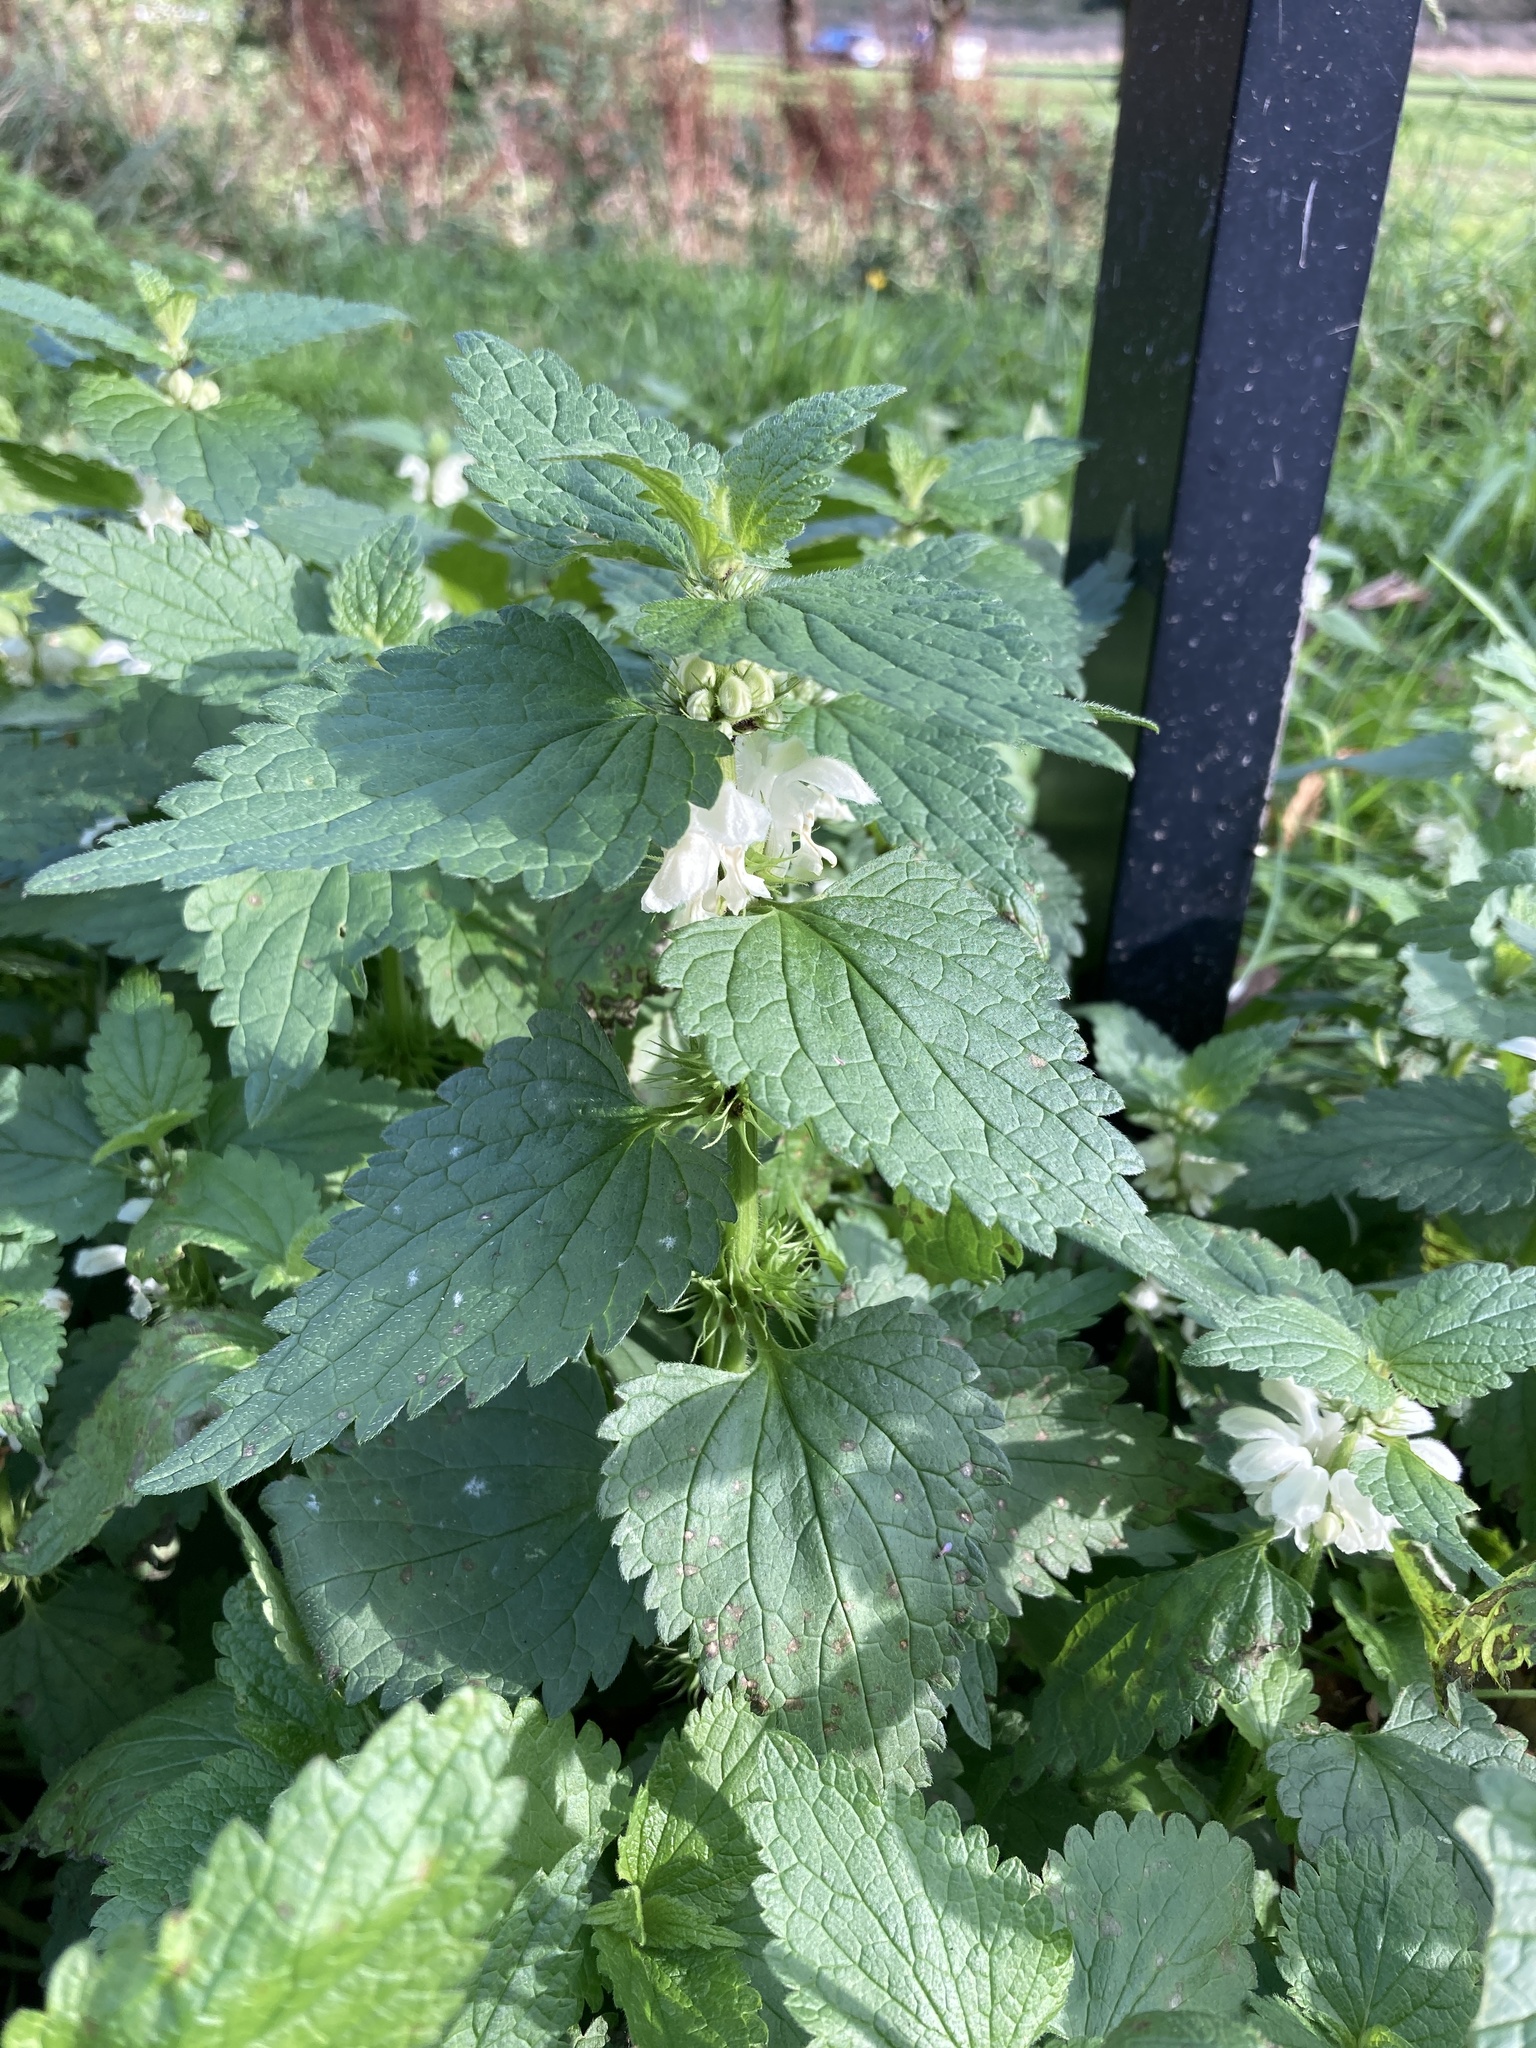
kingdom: Plantae
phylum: Tracheophyta
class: Magnoliopsida
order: Lamiales
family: Lamiaceae
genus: Lamium
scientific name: Lamium album
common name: White dead-nettle
